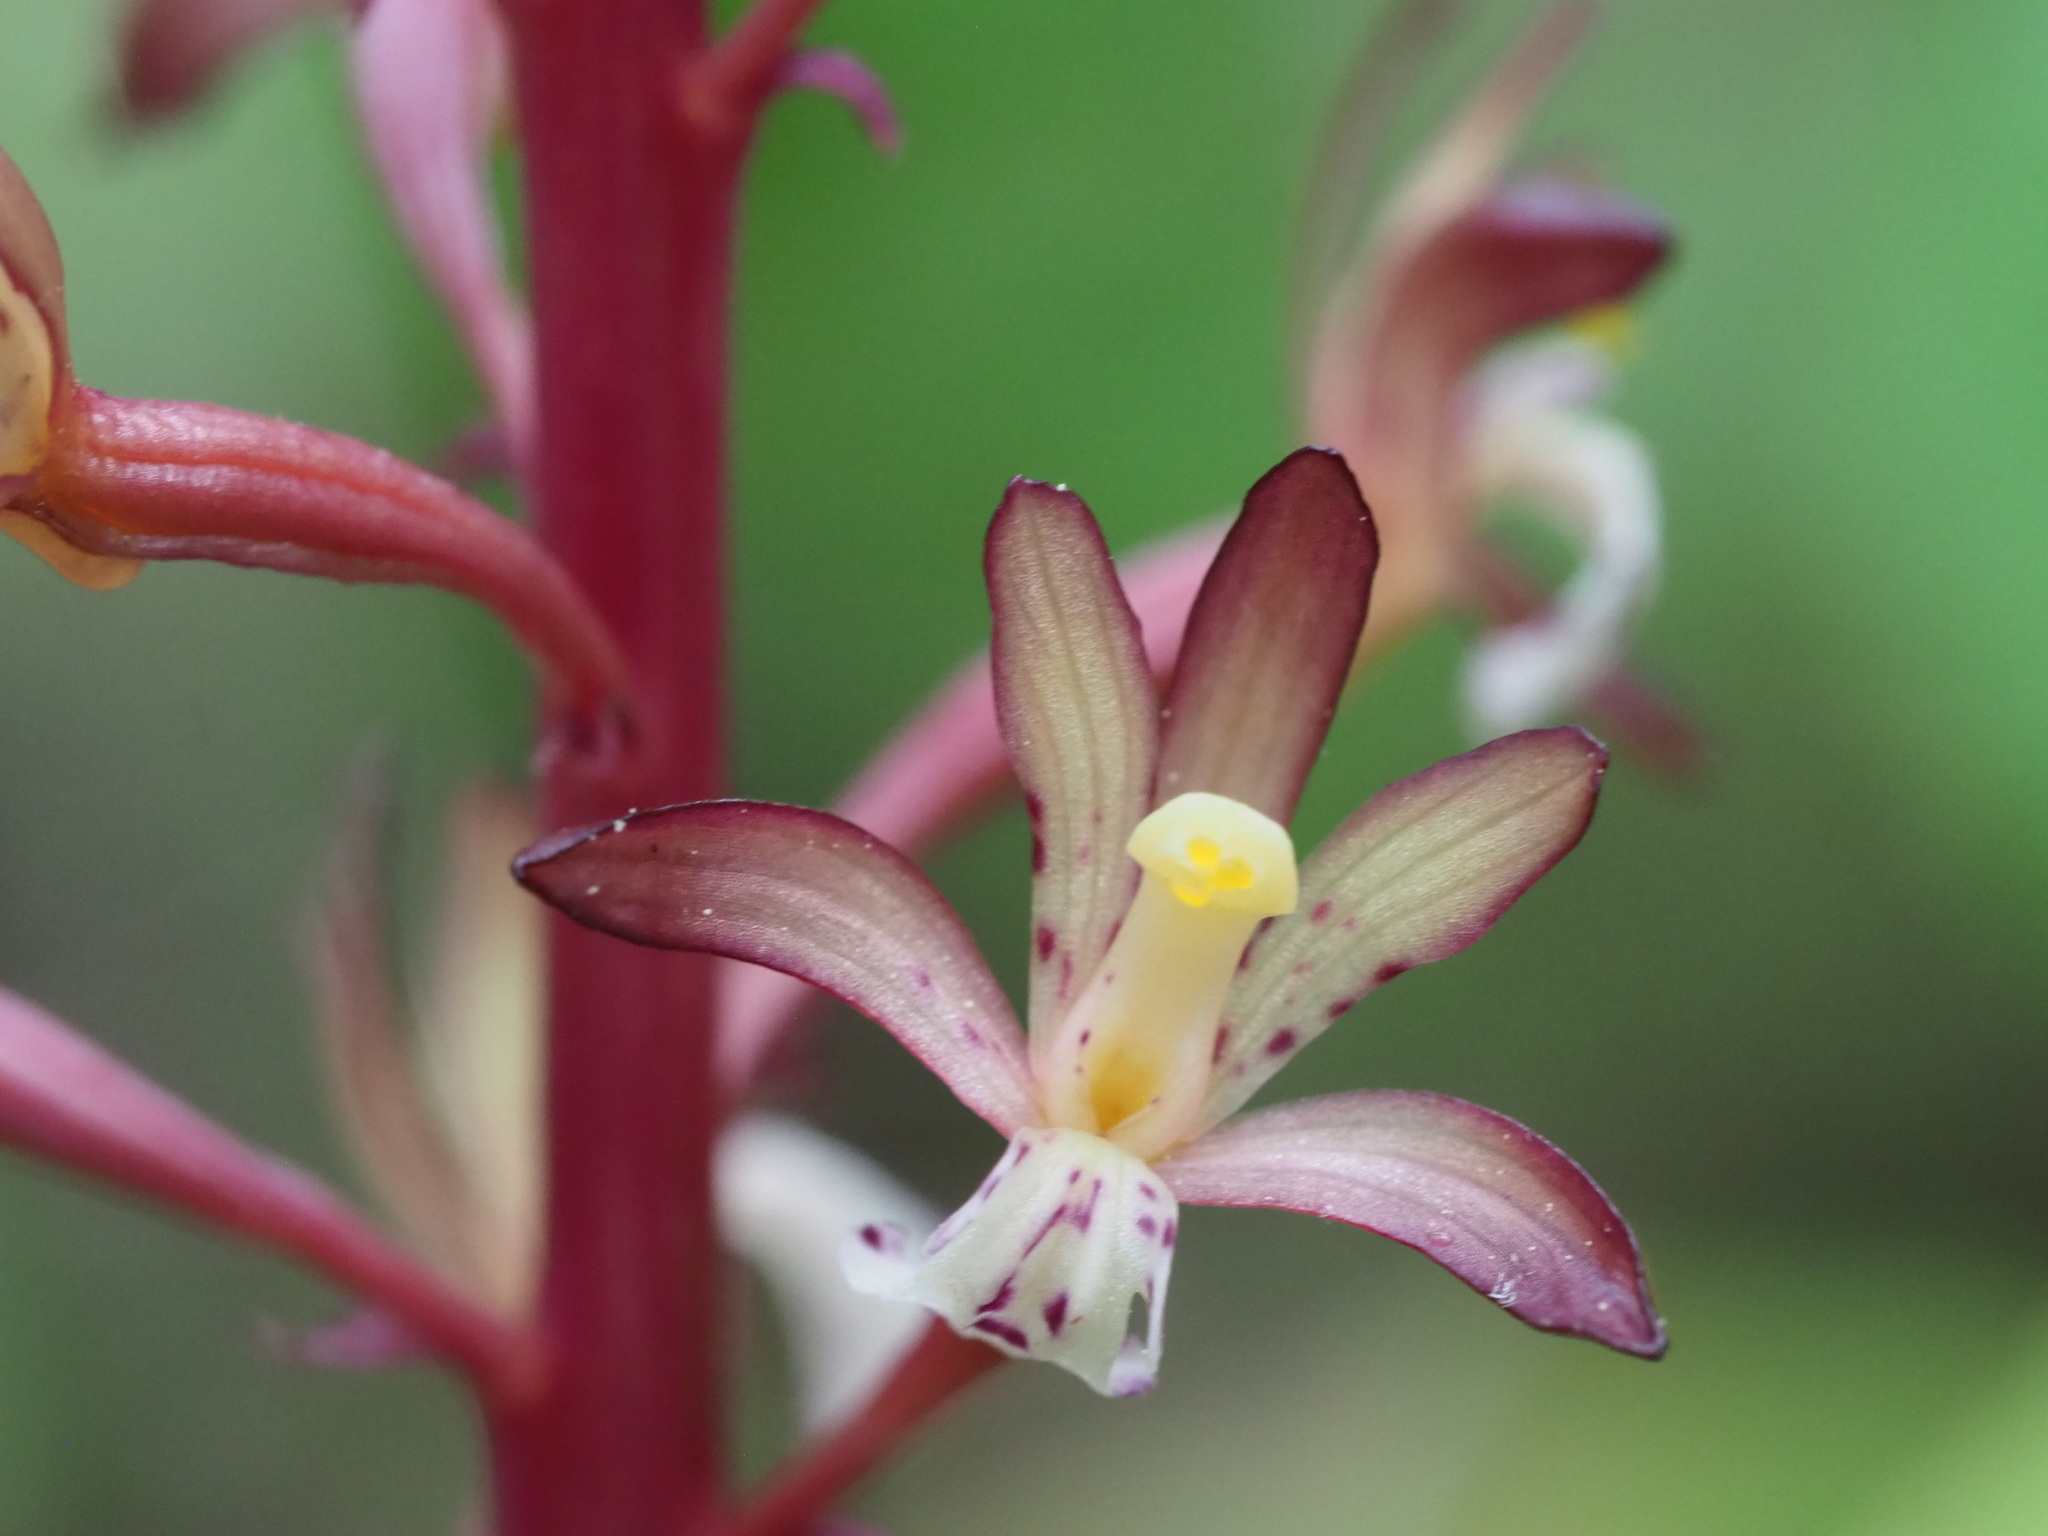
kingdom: Plantae
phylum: Tracheophyta
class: Liliopsida
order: Asparagales
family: Orchidaceae
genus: Corallorhiza
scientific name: Corallorhiza maculata
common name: Spotted coralroot
